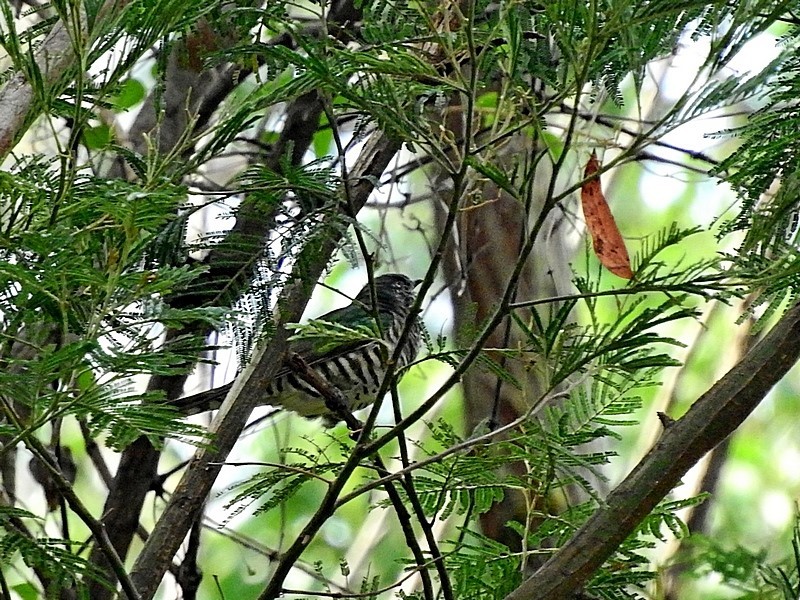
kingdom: Animalia
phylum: Chordata
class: Aves
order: Cuculiformes
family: Cuculidae
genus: Chrysococcyx
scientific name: Chrysococcyx lucidus
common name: Shining bronze cuckoo
